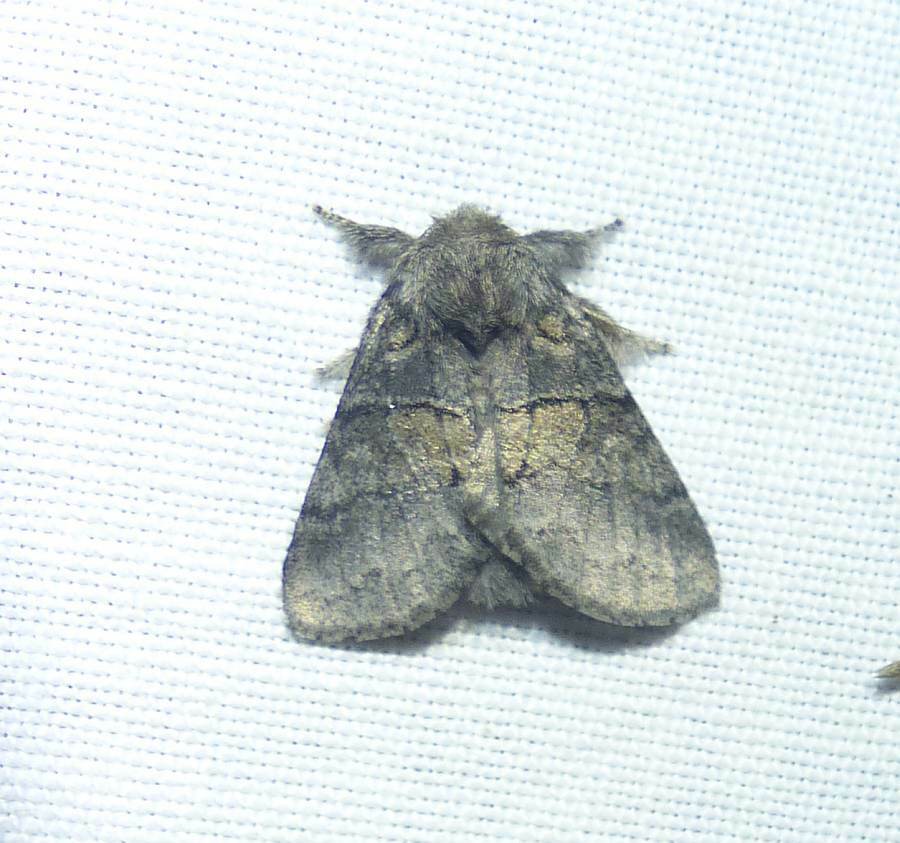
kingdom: Animalia
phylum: Arthropoda
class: Insecta
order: Lepidoptera
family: Notodontidae
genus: Gluphisia
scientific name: Gluphisia septentrionis
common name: Common gluphisia
